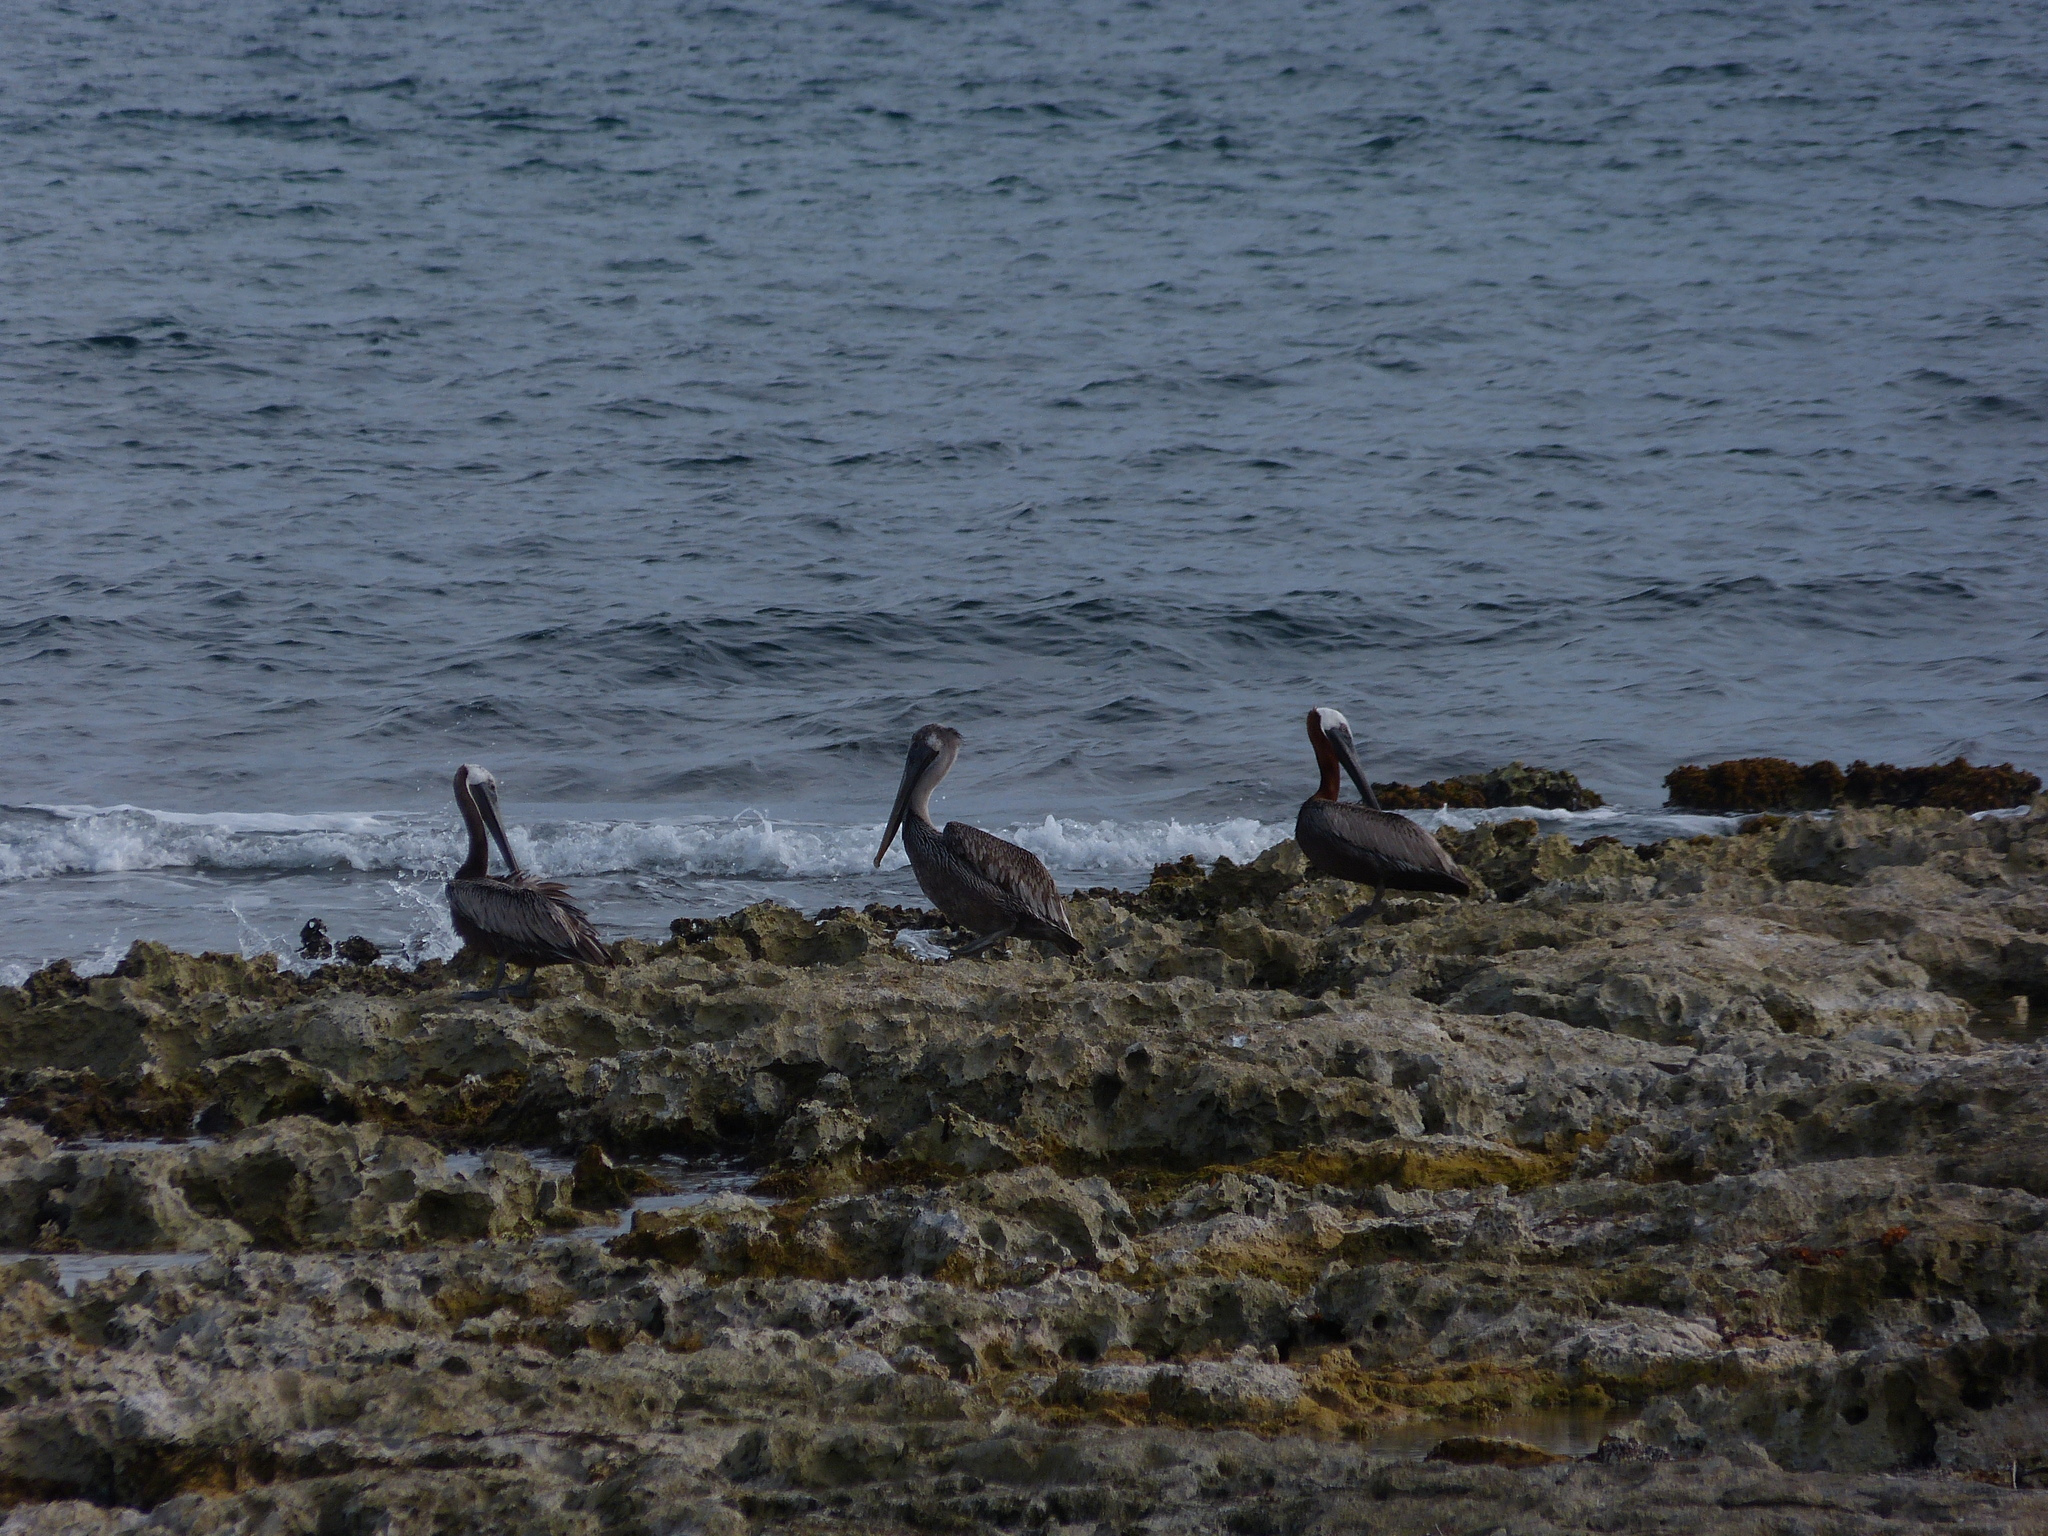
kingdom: Animalia
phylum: Chordata
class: Aves
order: Pelecaniformes
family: Pelecanidae
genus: Pelecanus
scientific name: Pelecanus occidentalis
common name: Brown pelican
